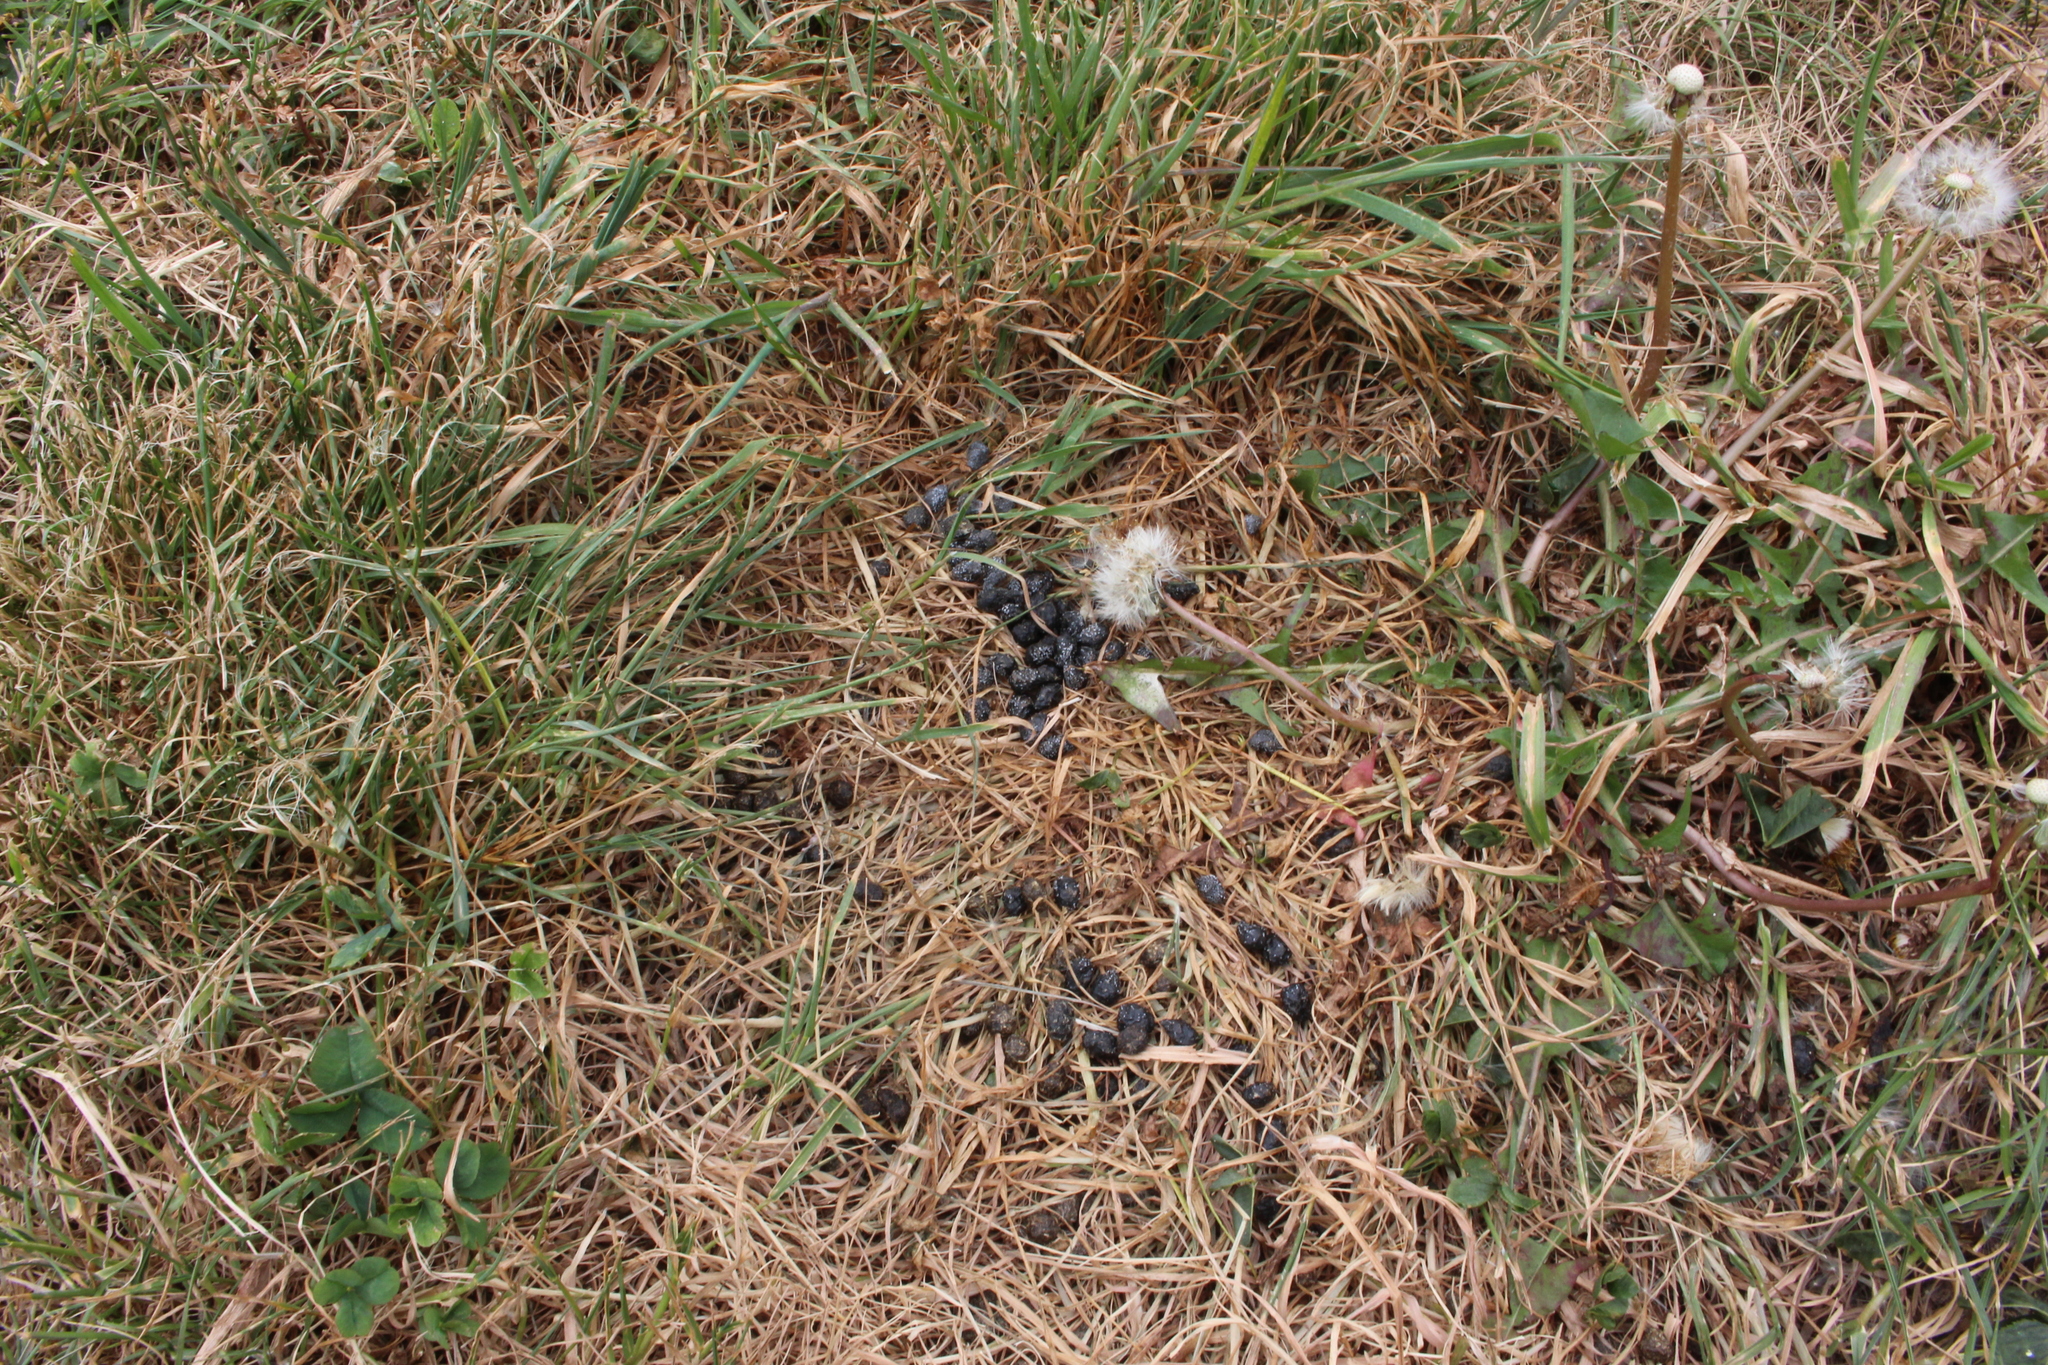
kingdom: Animalia
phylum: Chordata
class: Mammalia
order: Lagomorpha
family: Leporidae
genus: Oryctolagus
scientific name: Oryctolagus cuniculus
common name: European rabbit
